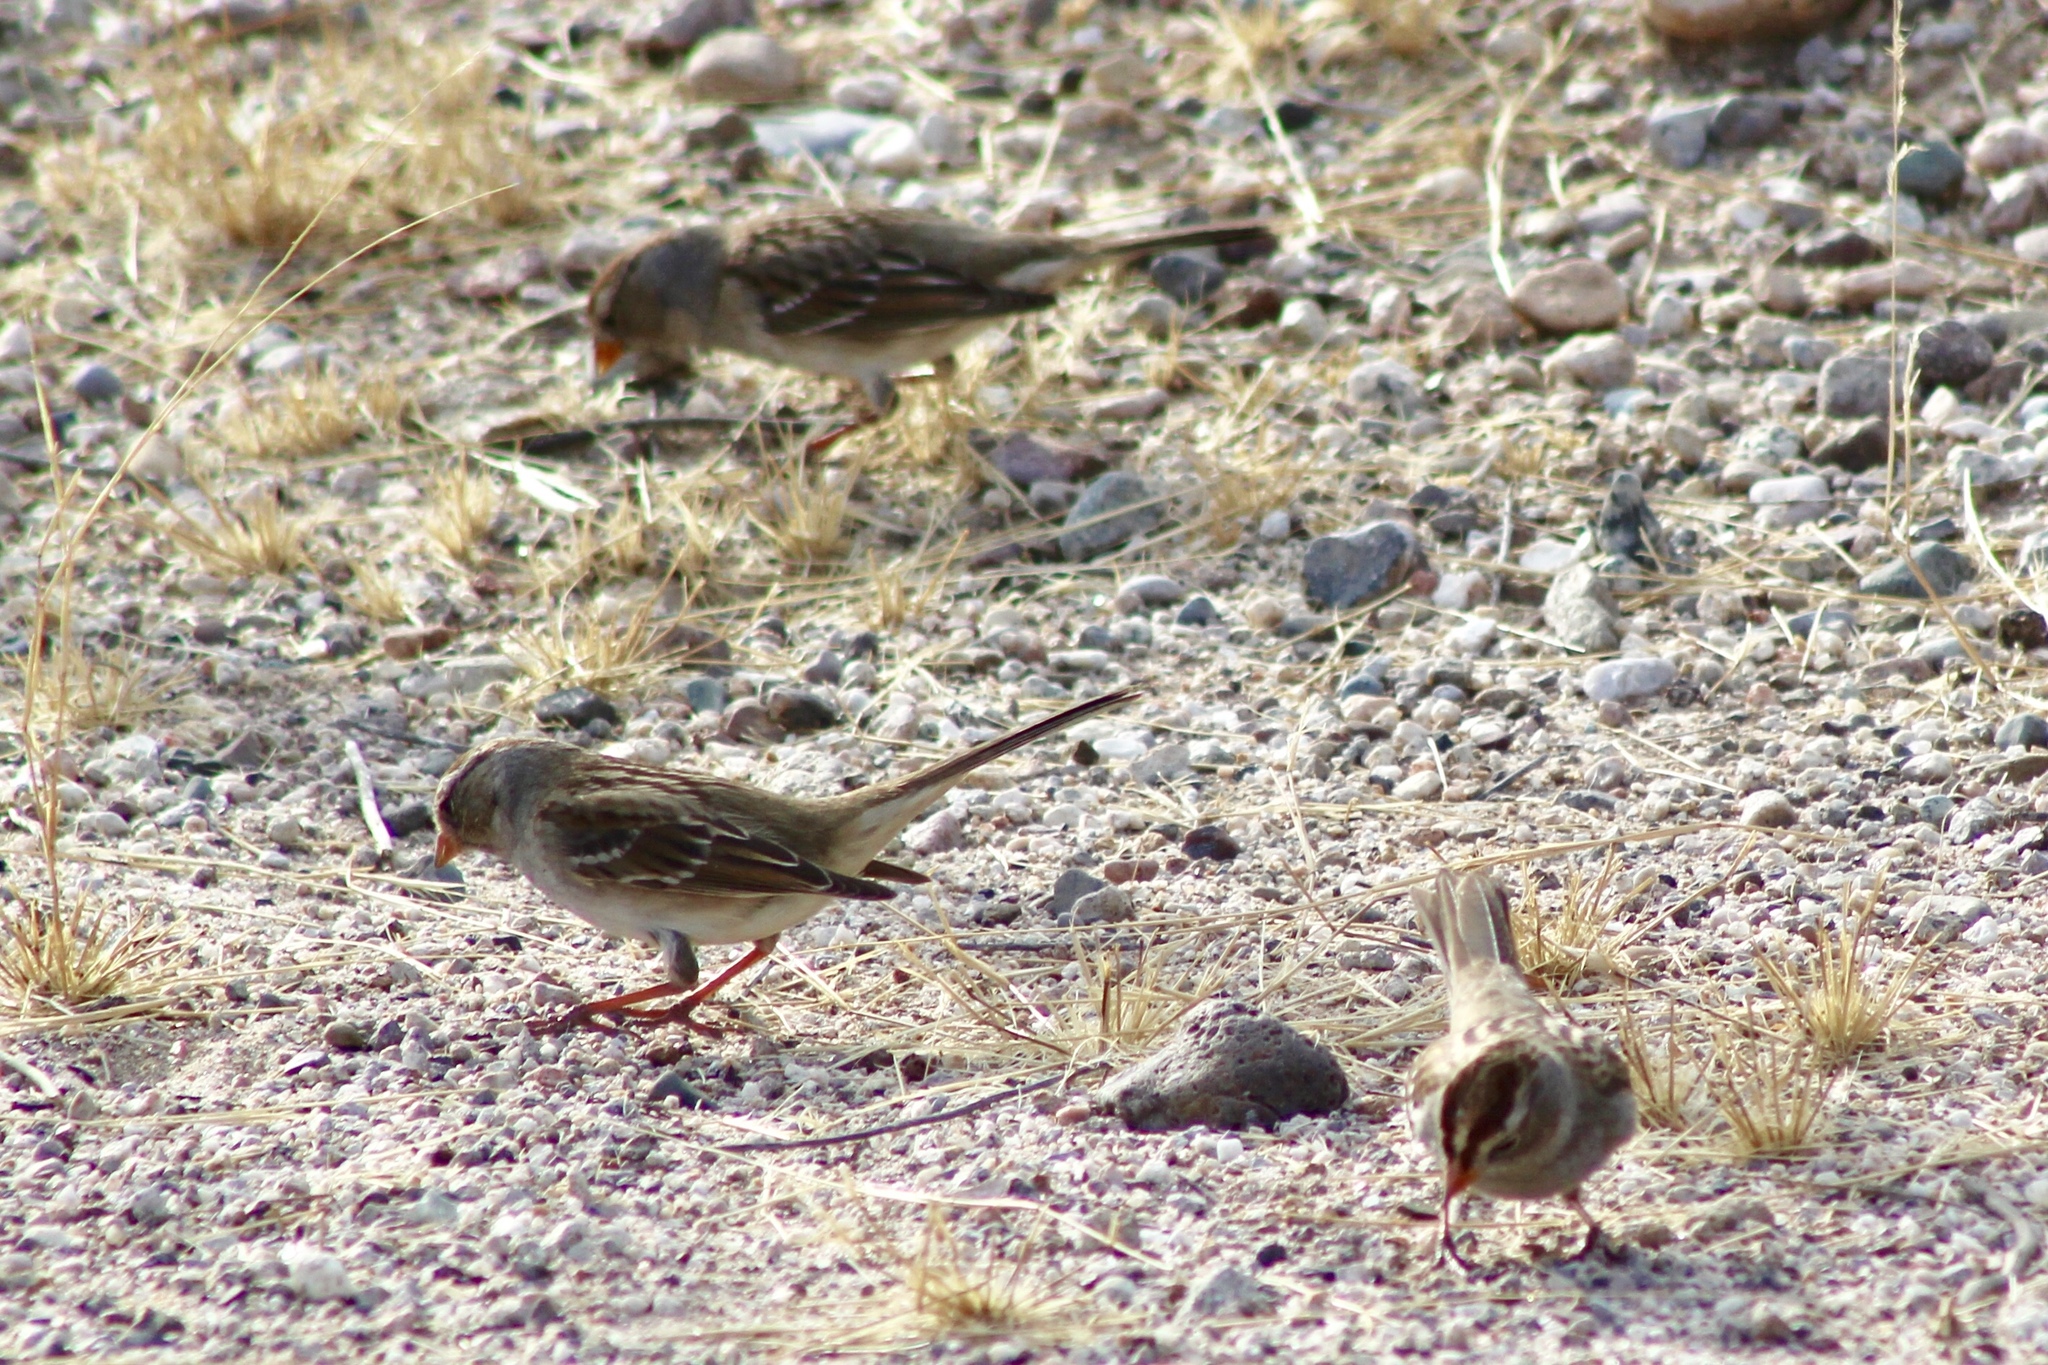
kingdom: Animalia
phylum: Chordata
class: Aves
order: Passeriformes
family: Passerellidae
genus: Zonotrichia
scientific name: Zonotrichia leucophrys
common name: White-crowned sparrow
